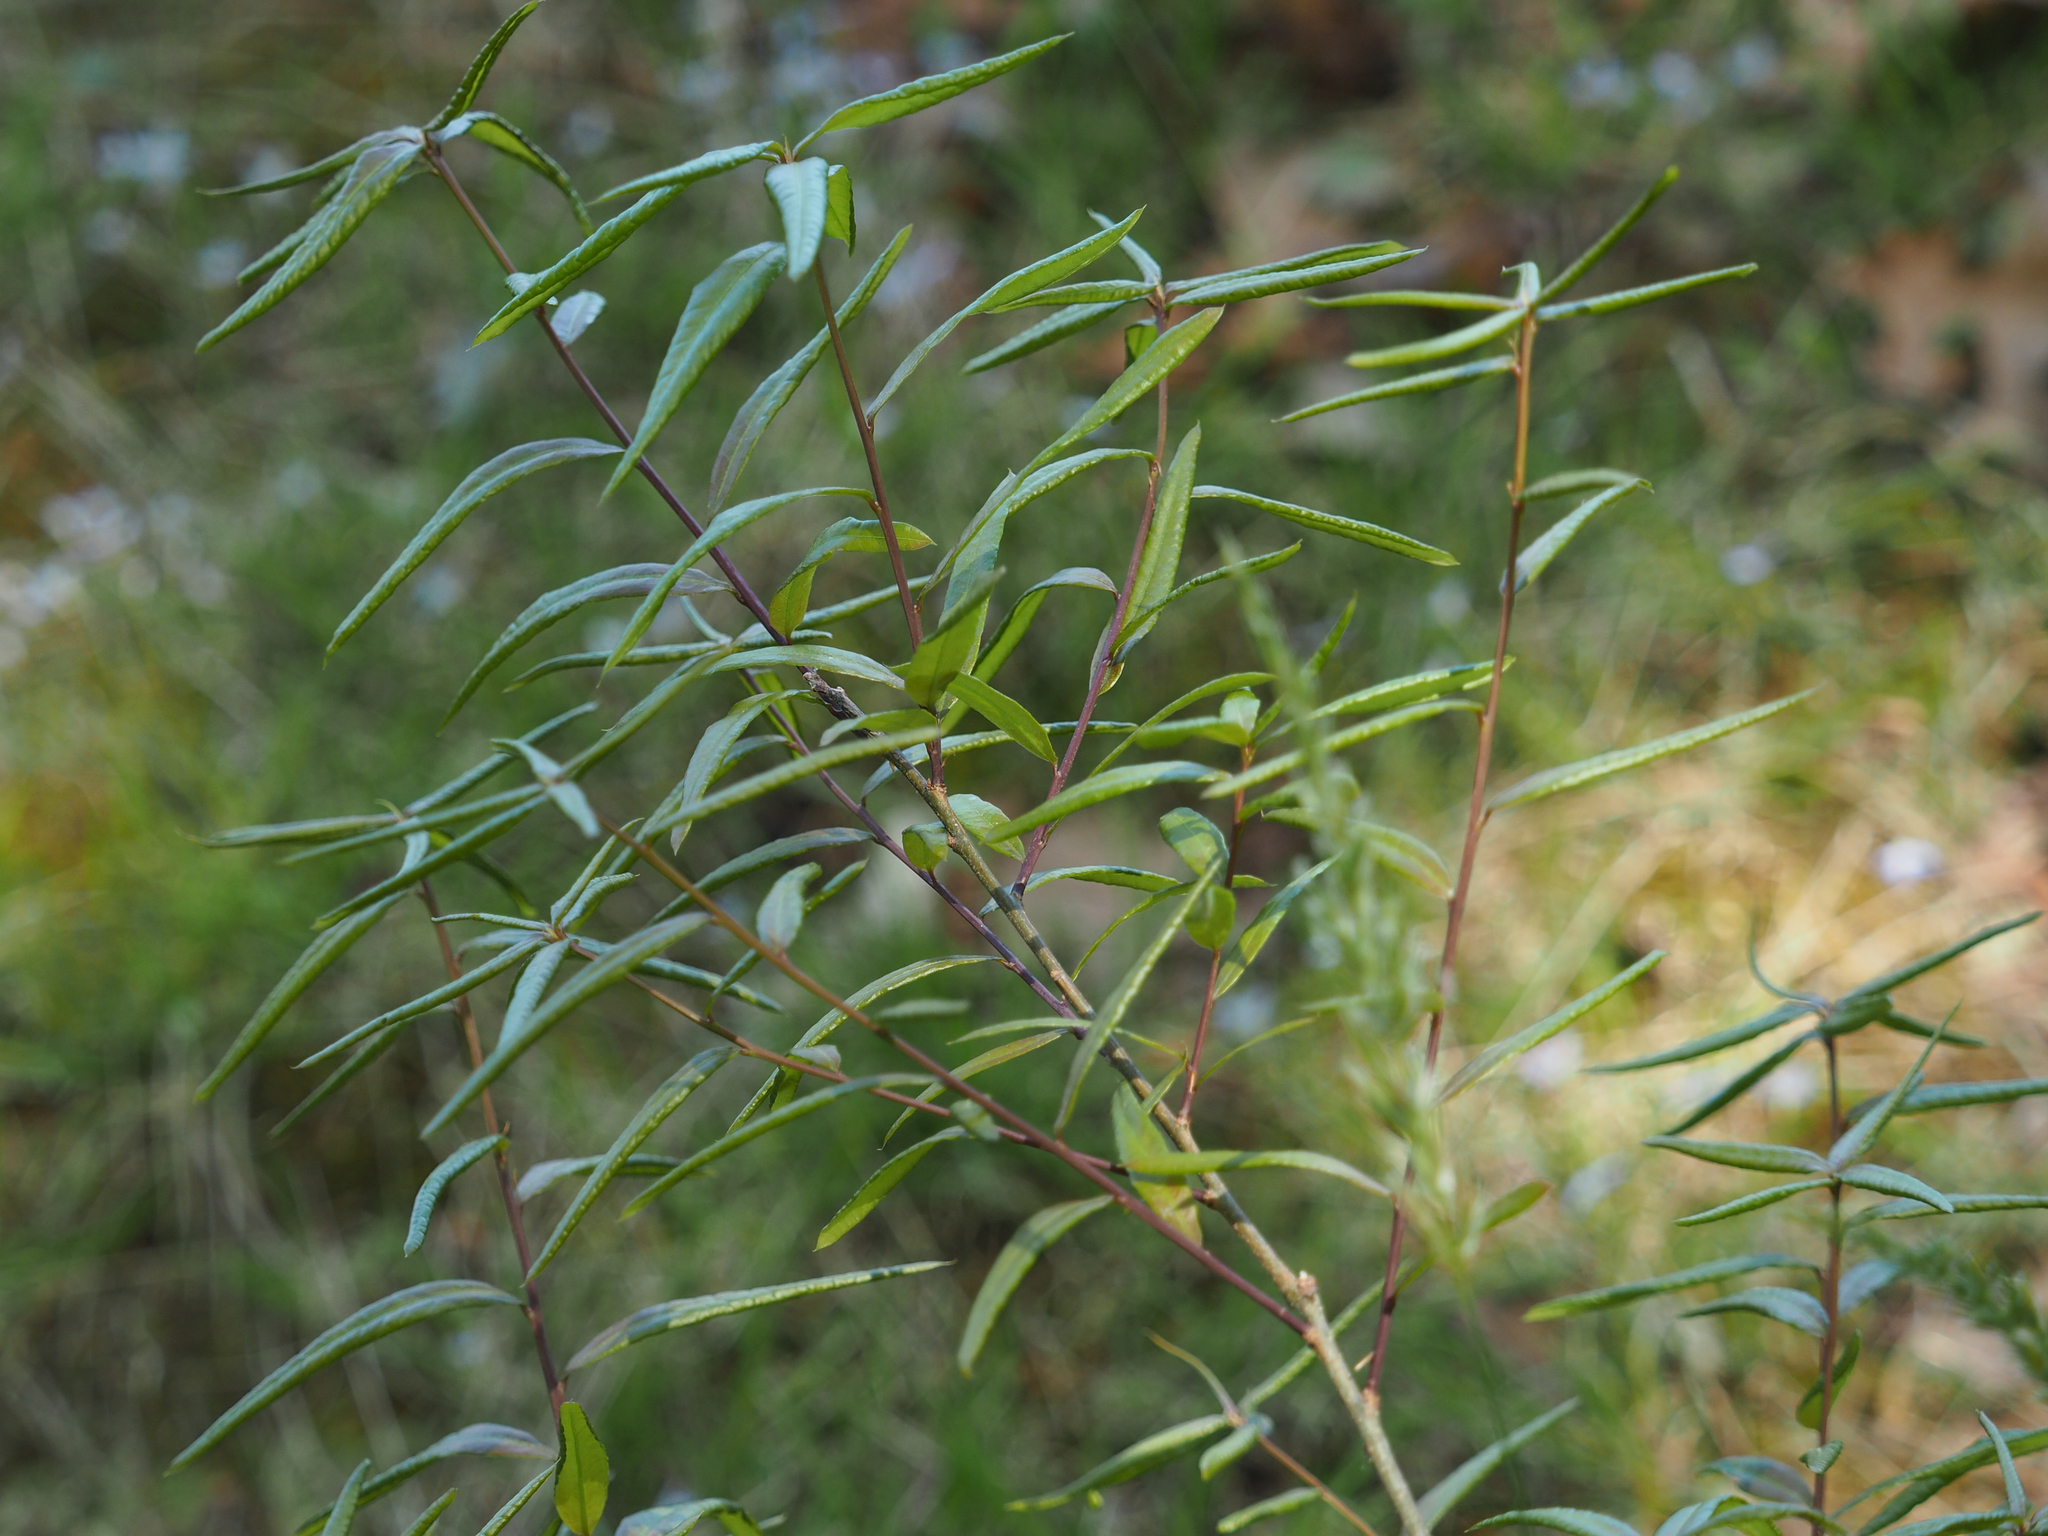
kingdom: Plantae
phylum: Tracheophyta
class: Magnoliopsida
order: Fagales
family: Fagaceae
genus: Quercus
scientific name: Quercus phellos
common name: Willow oak
